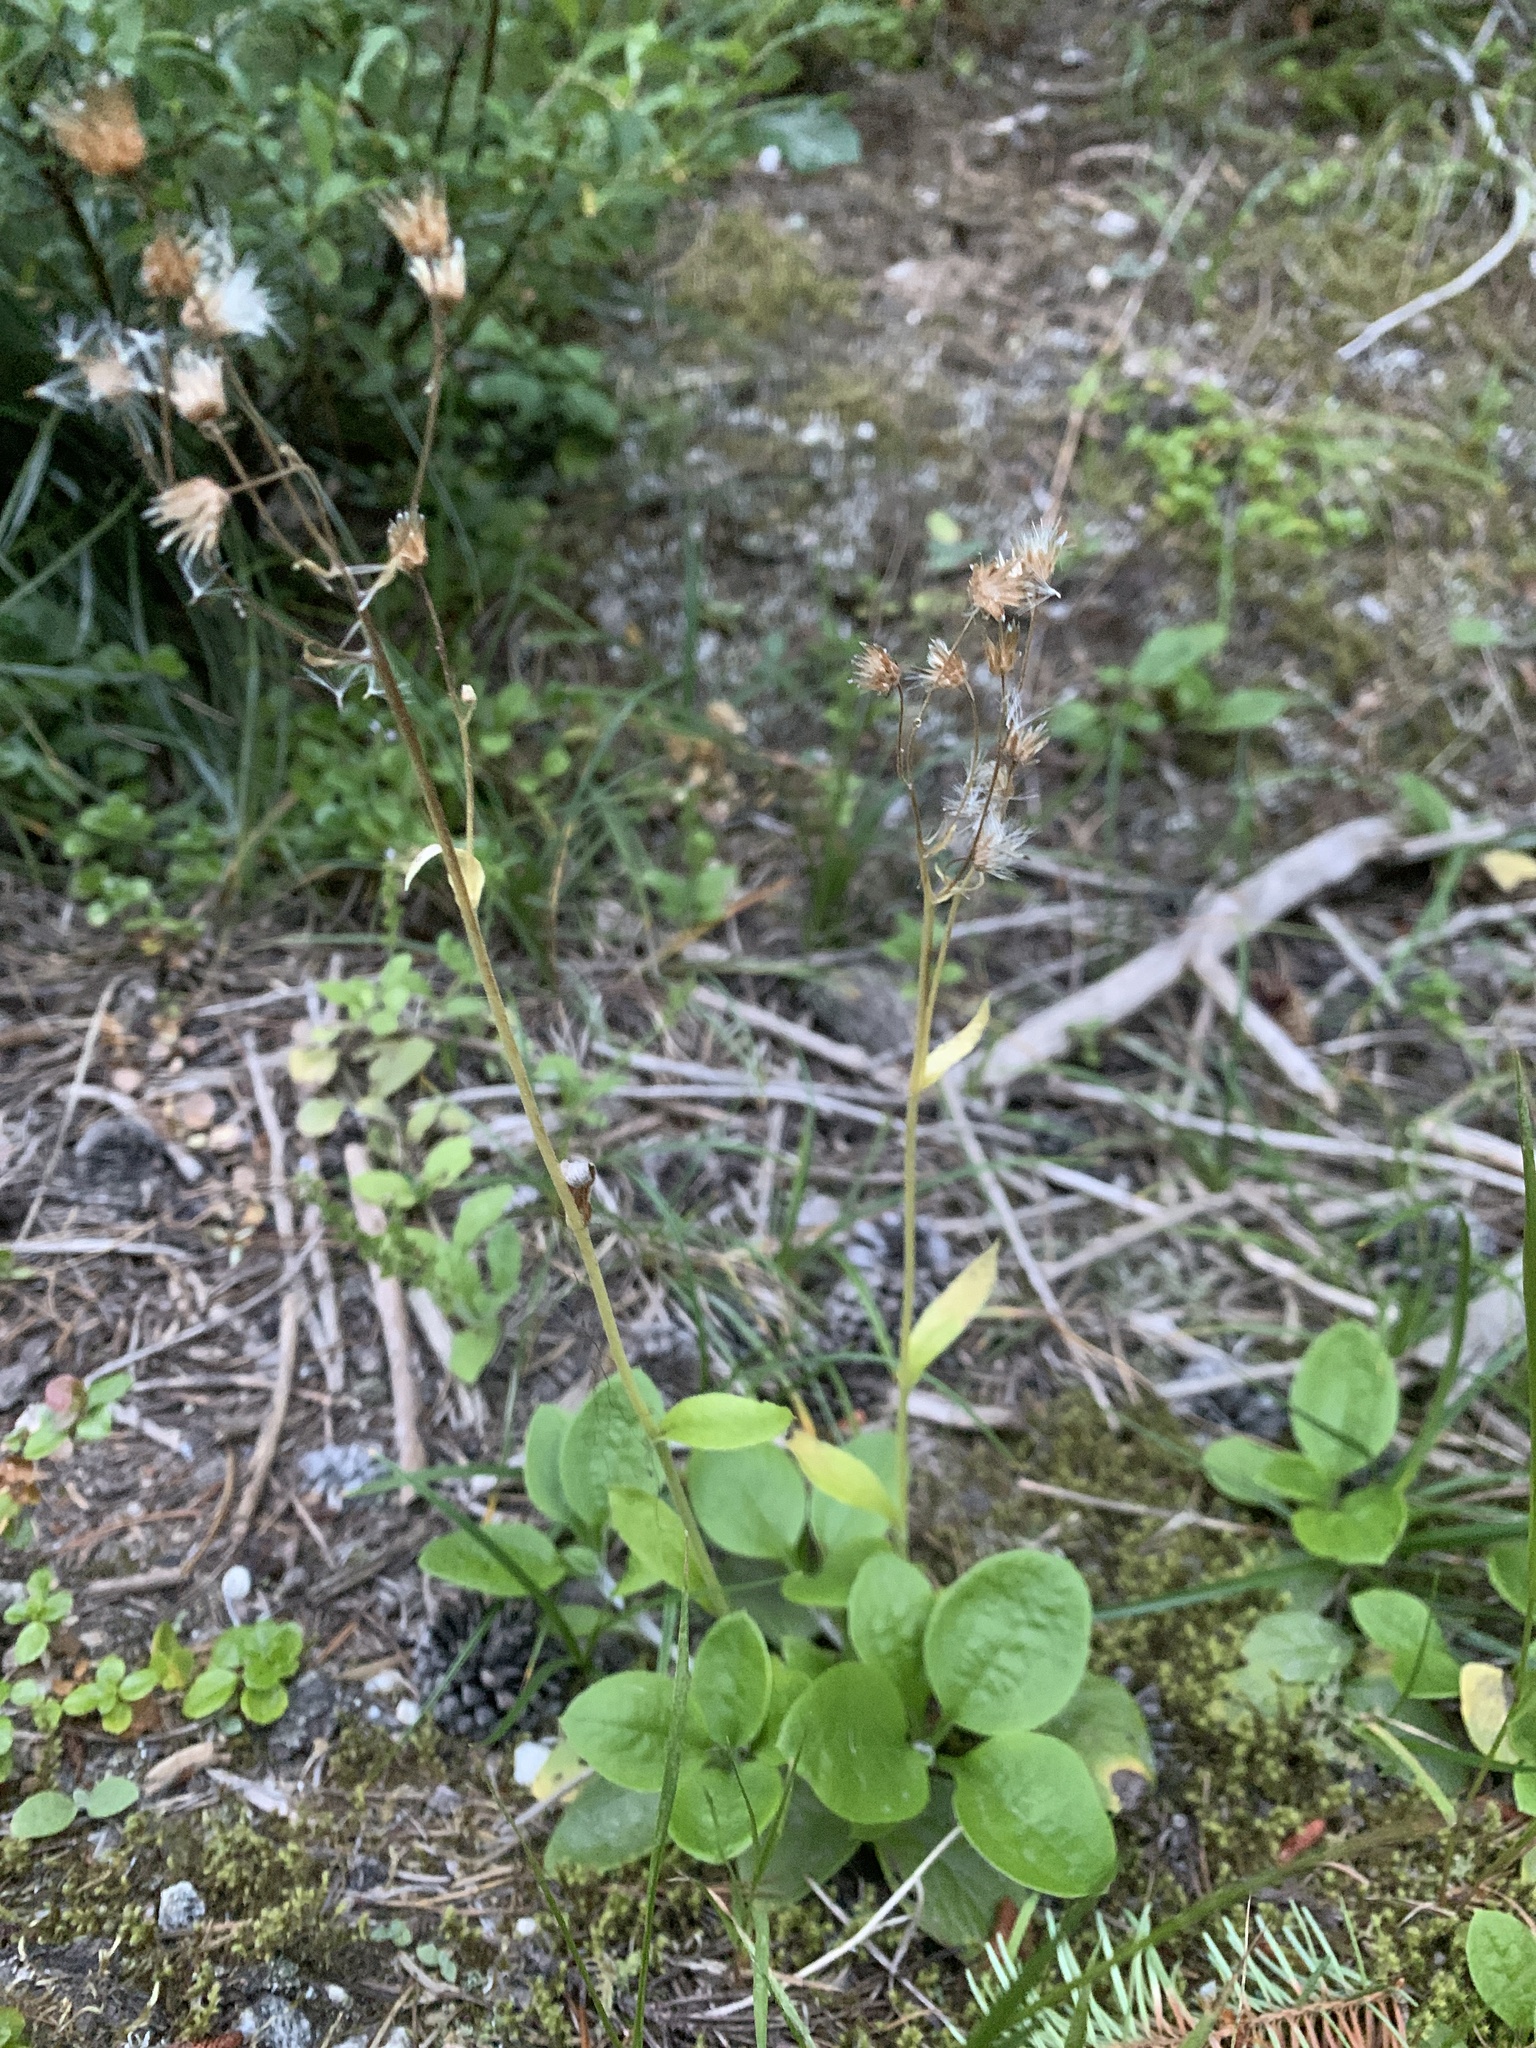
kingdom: Plantae
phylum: Tracheophyta
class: Magnoliopsida
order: Asterales
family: Asteraceae
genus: Antennaria
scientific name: Antennaria racemosa
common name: Racemose pussytoes
